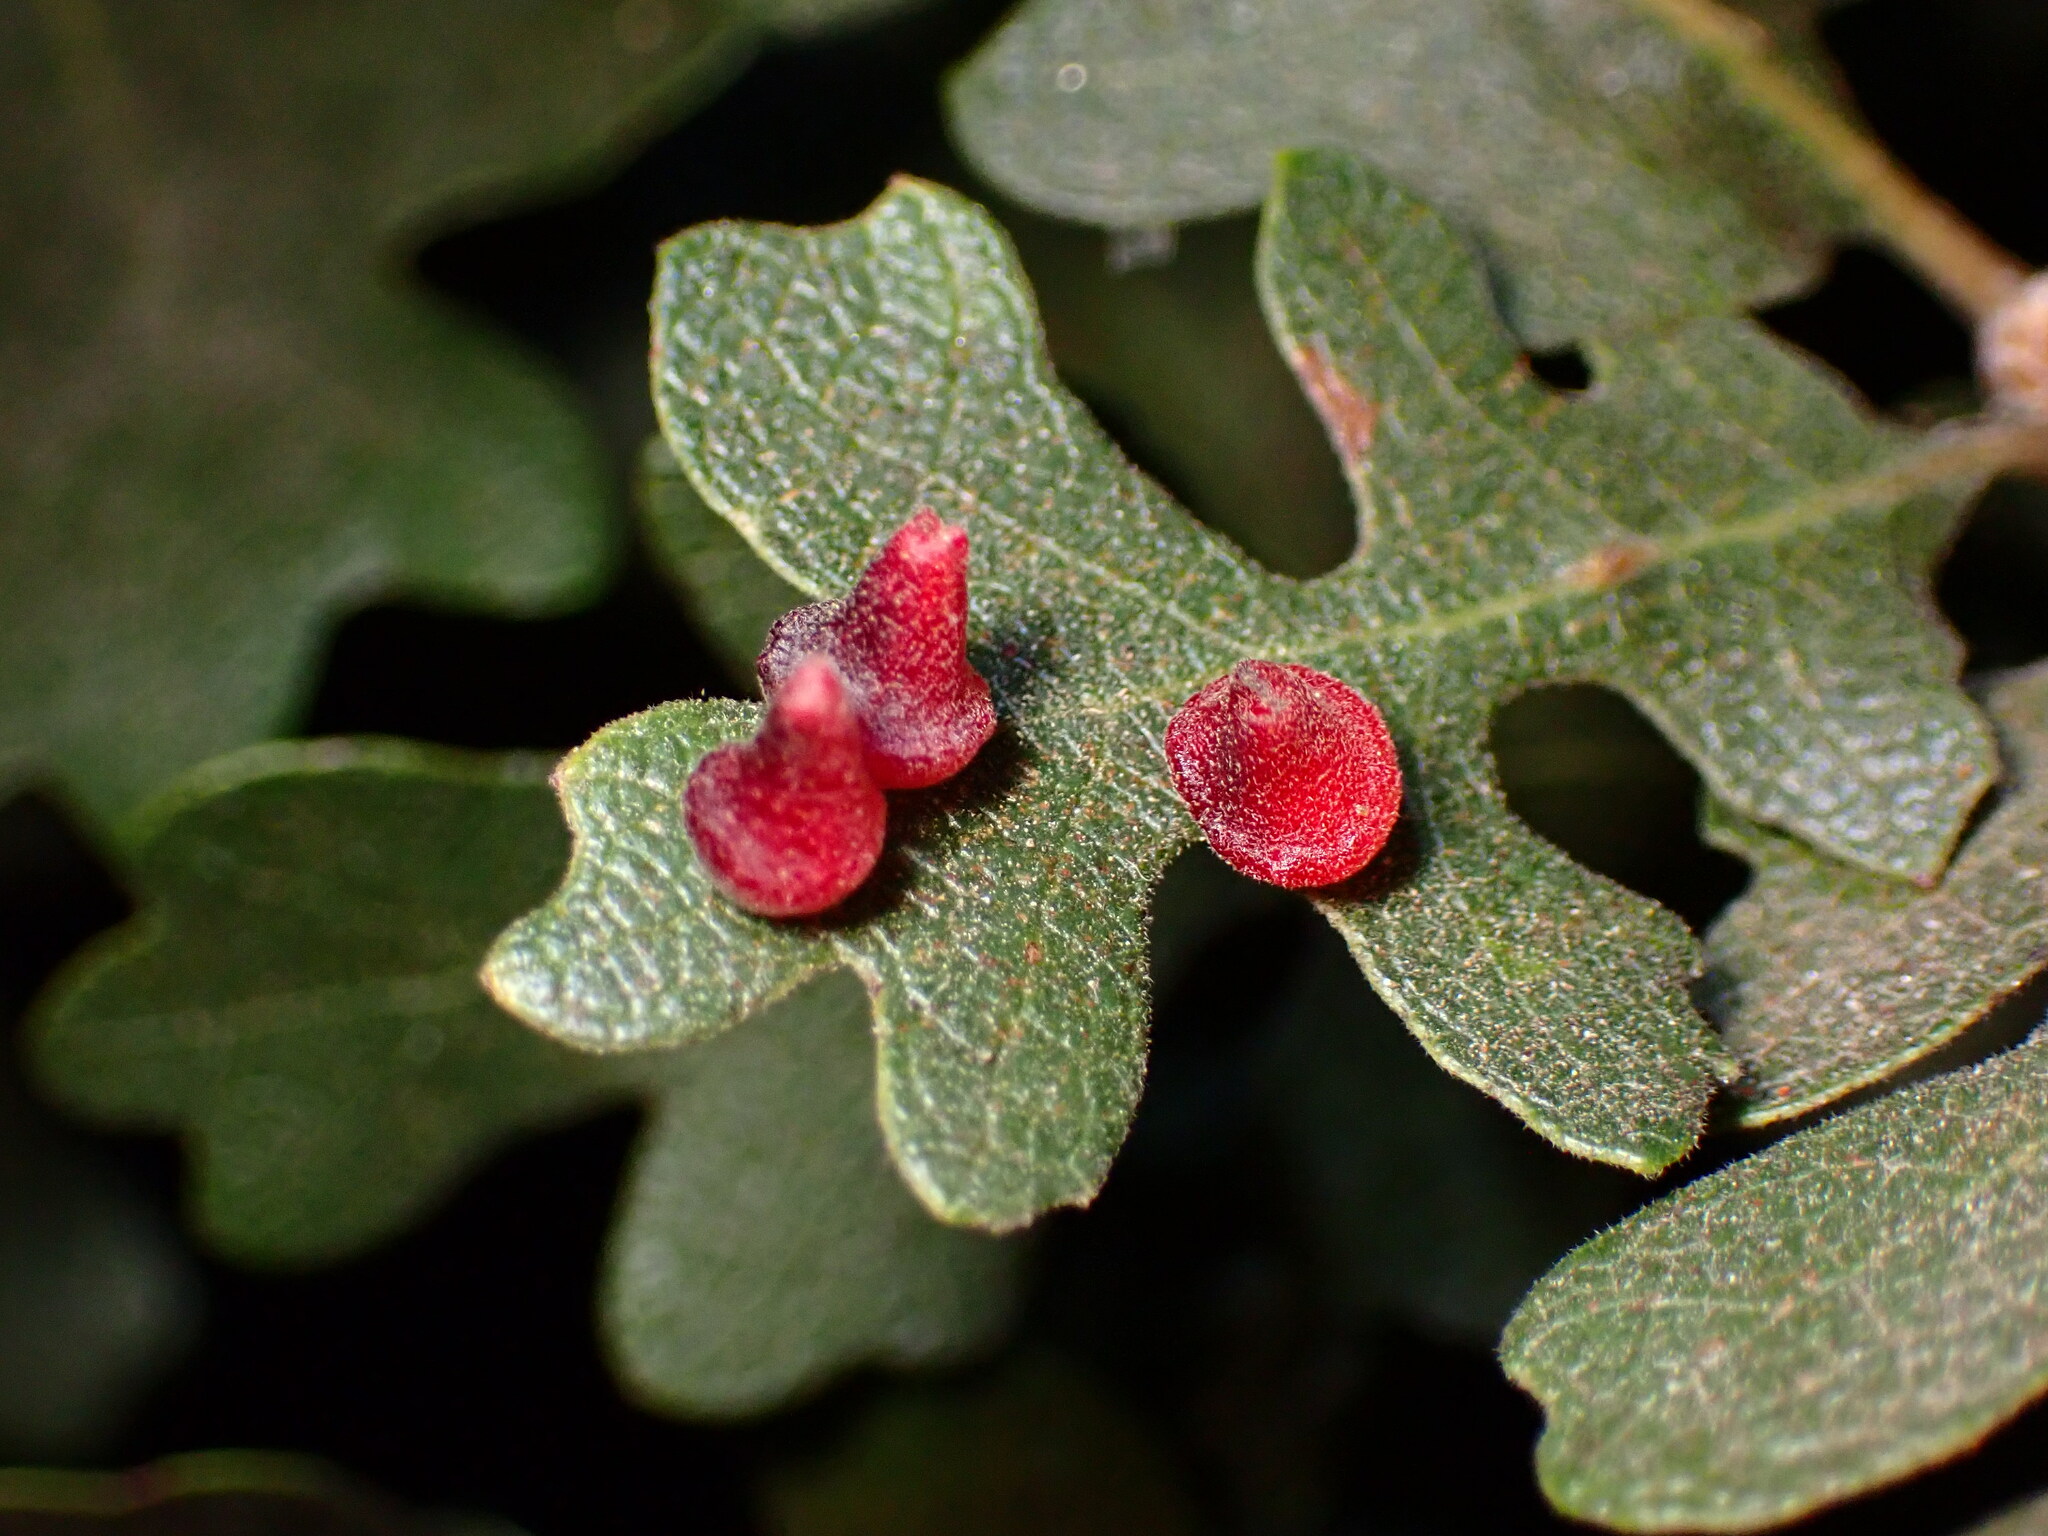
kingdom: Animalia
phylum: Arthropoda
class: Insecta
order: Hymenoptera
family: Cynipidae
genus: Andricus
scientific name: Andricus
